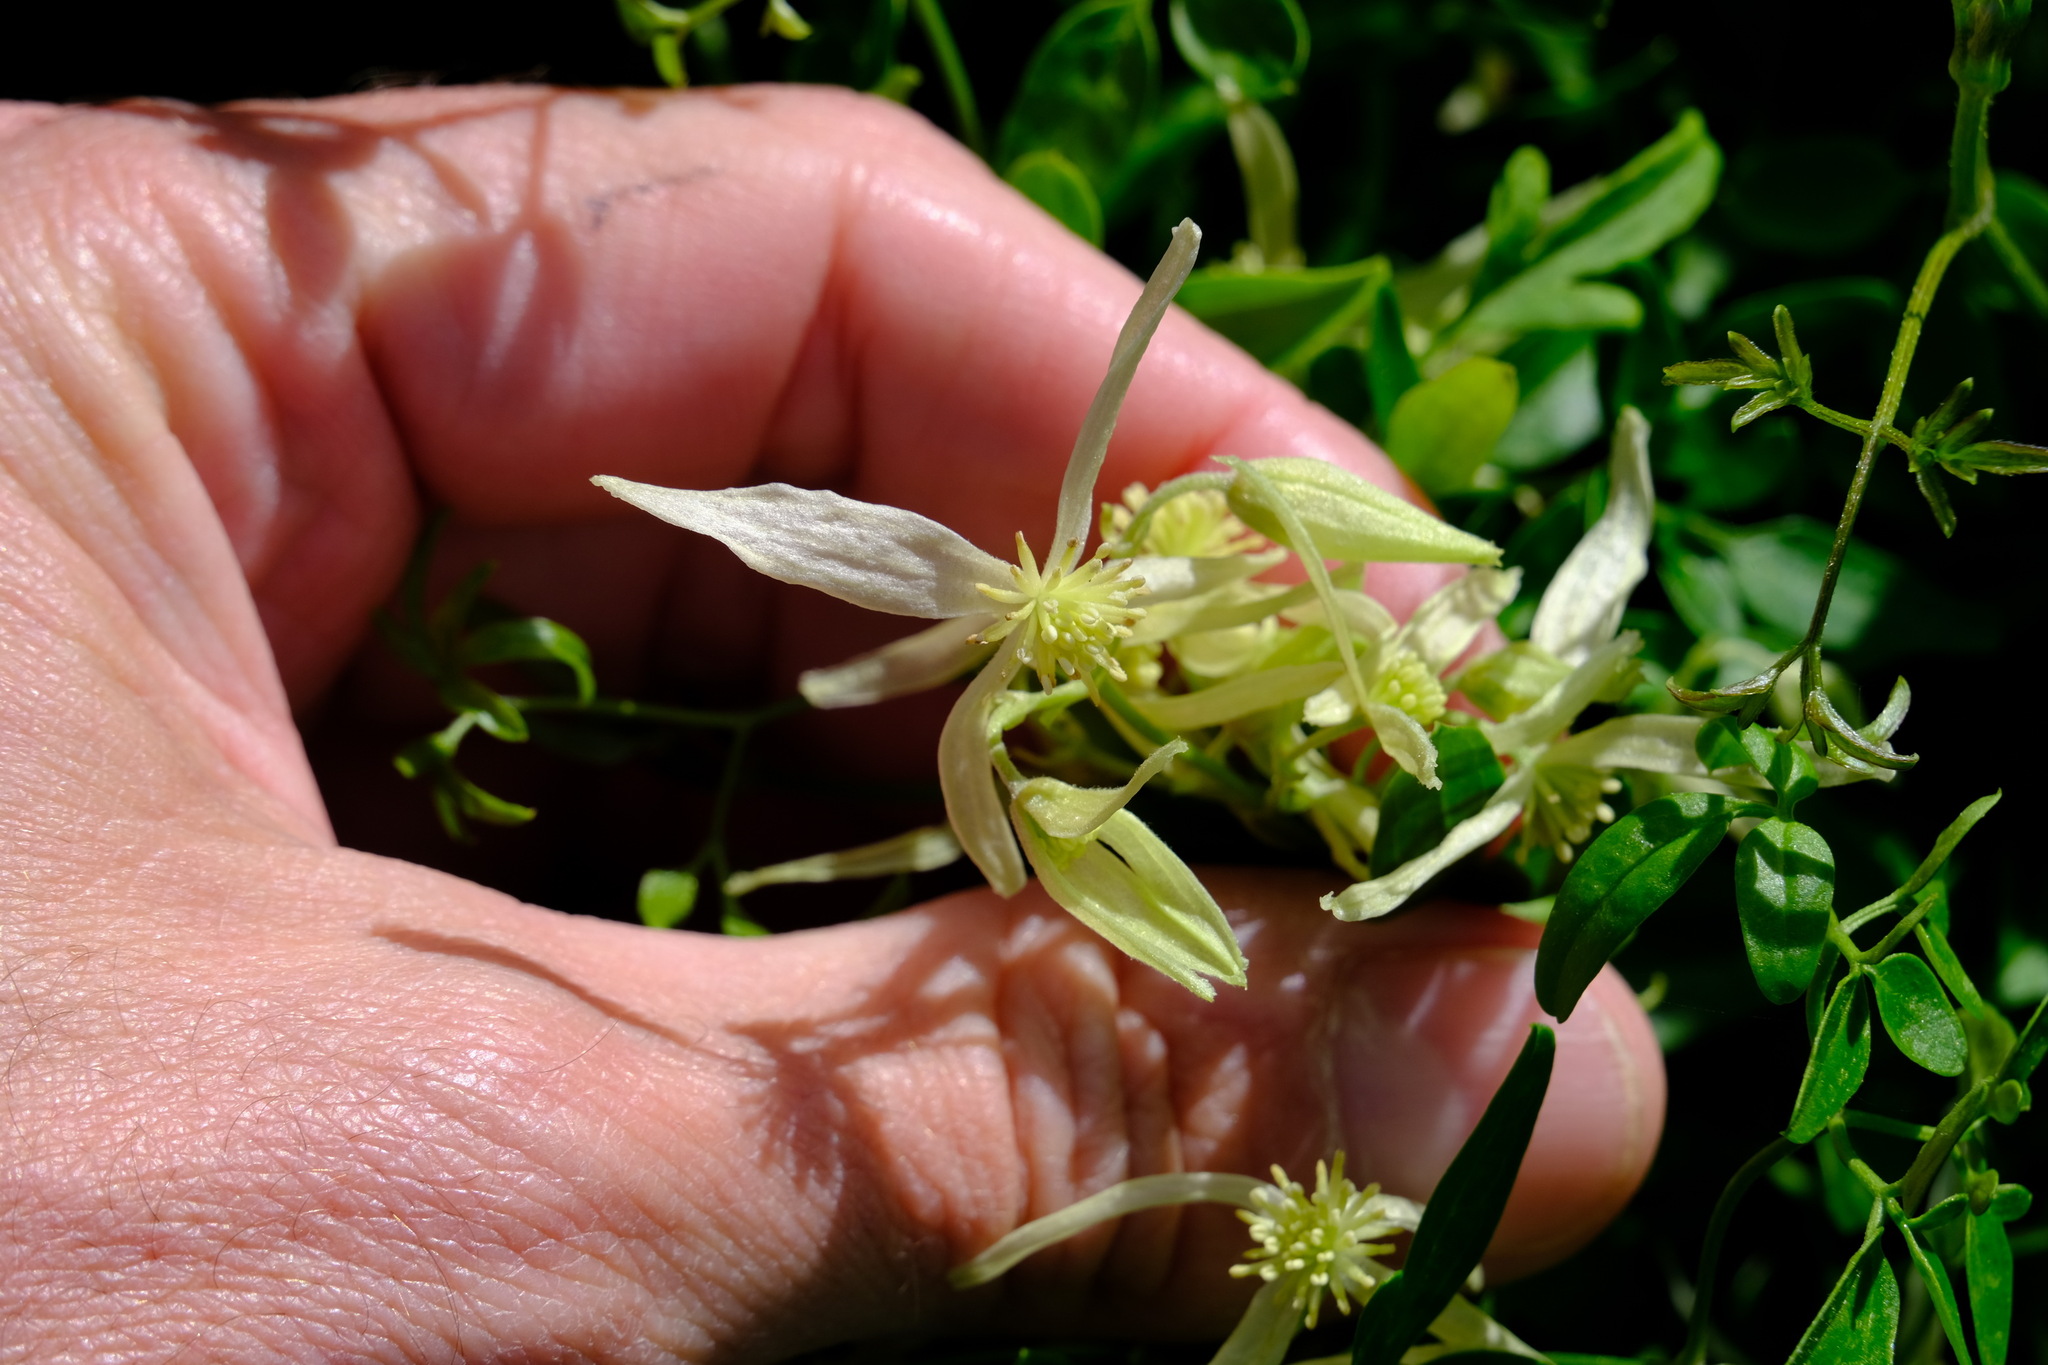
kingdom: Plantae
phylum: Tracheophyta
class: Magnoliopsida
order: Ranunculales
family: Ranunculaceae
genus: Clematis
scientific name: Clematis microphylla
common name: Headachevine
